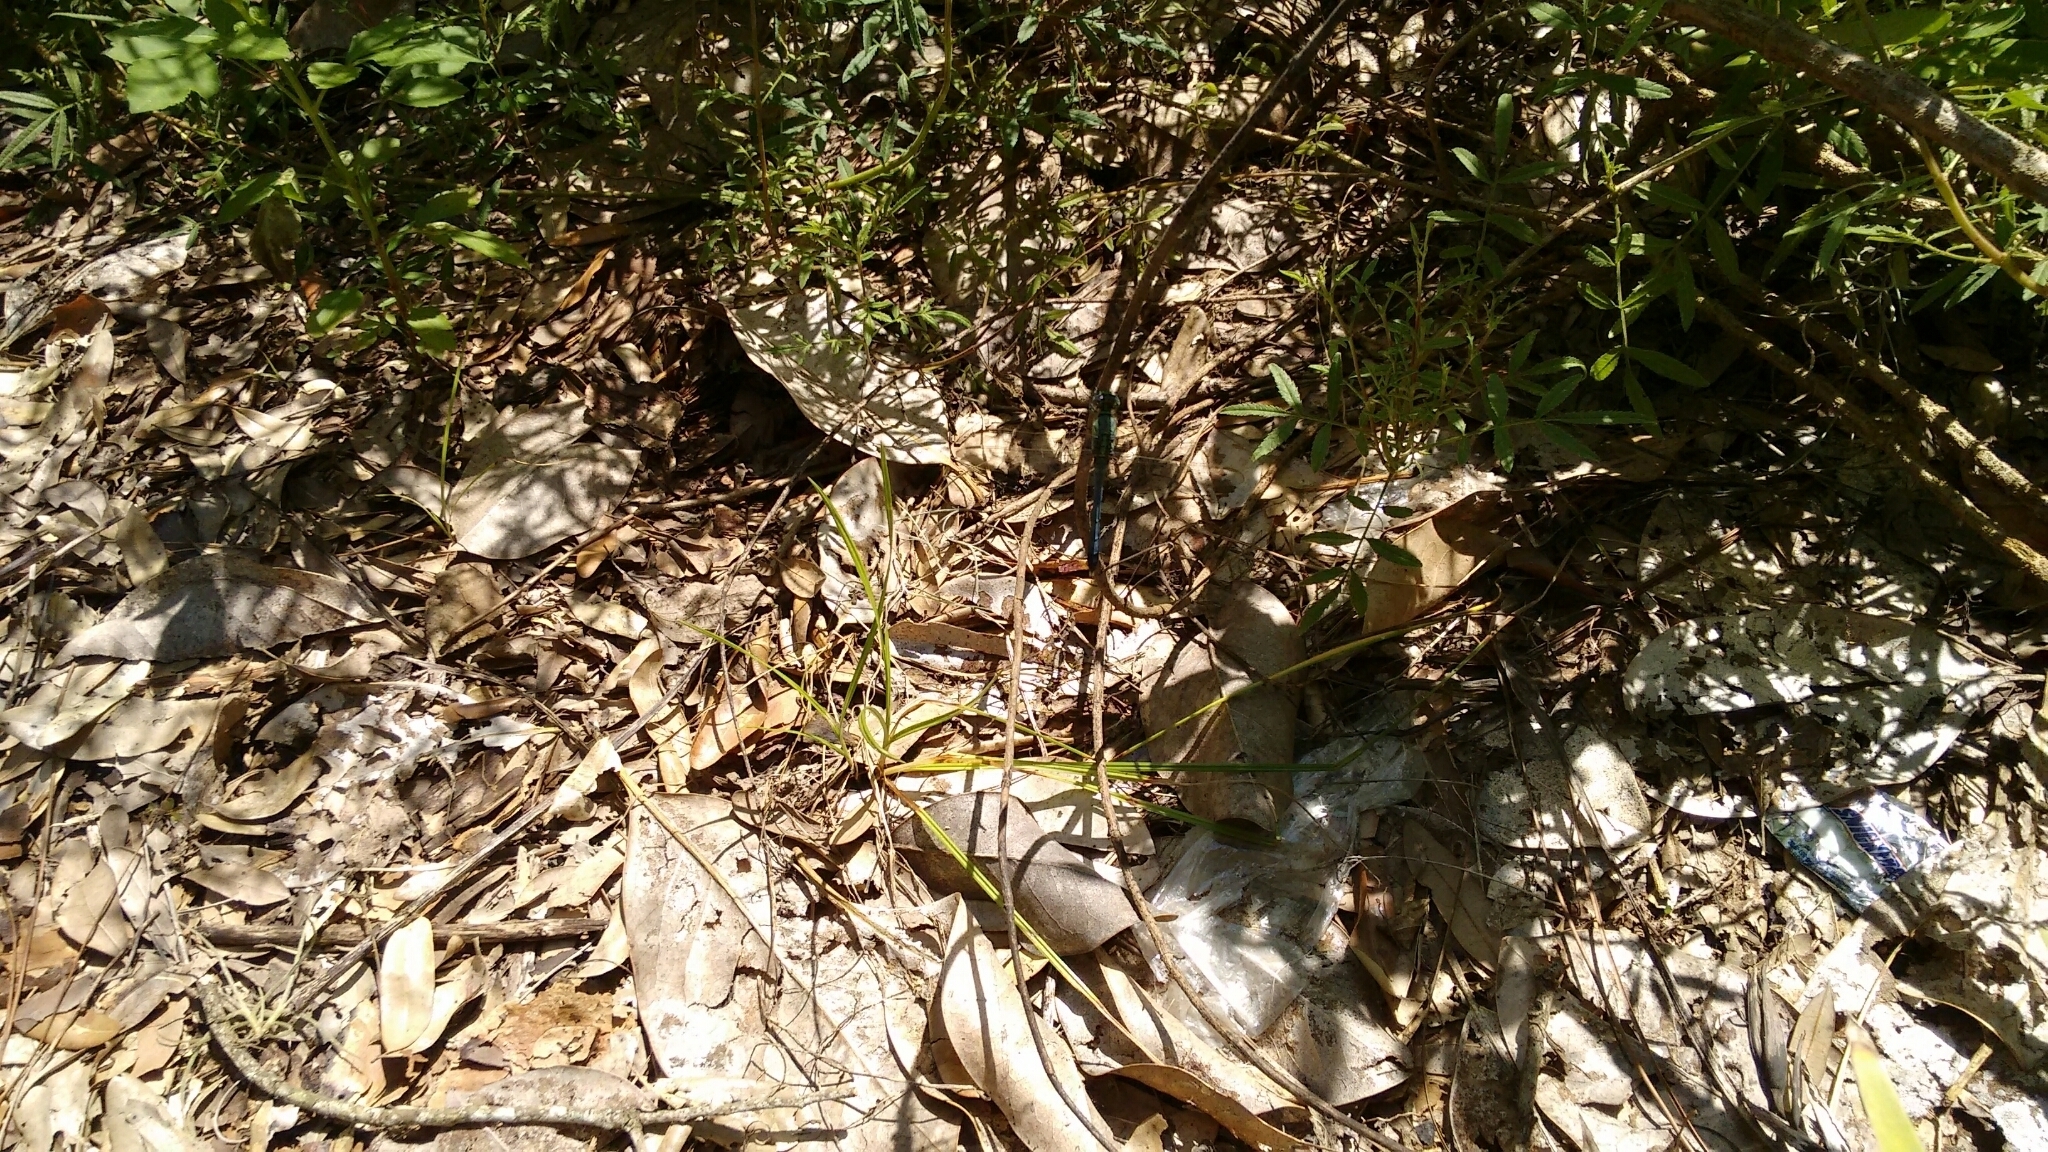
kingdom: Animalia
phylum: Arthropoda
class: Insecta
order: Odonata
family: Libellulidae
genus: Erythemis
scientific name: Erythemis simplicicollis
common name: Eastern pondhawk
